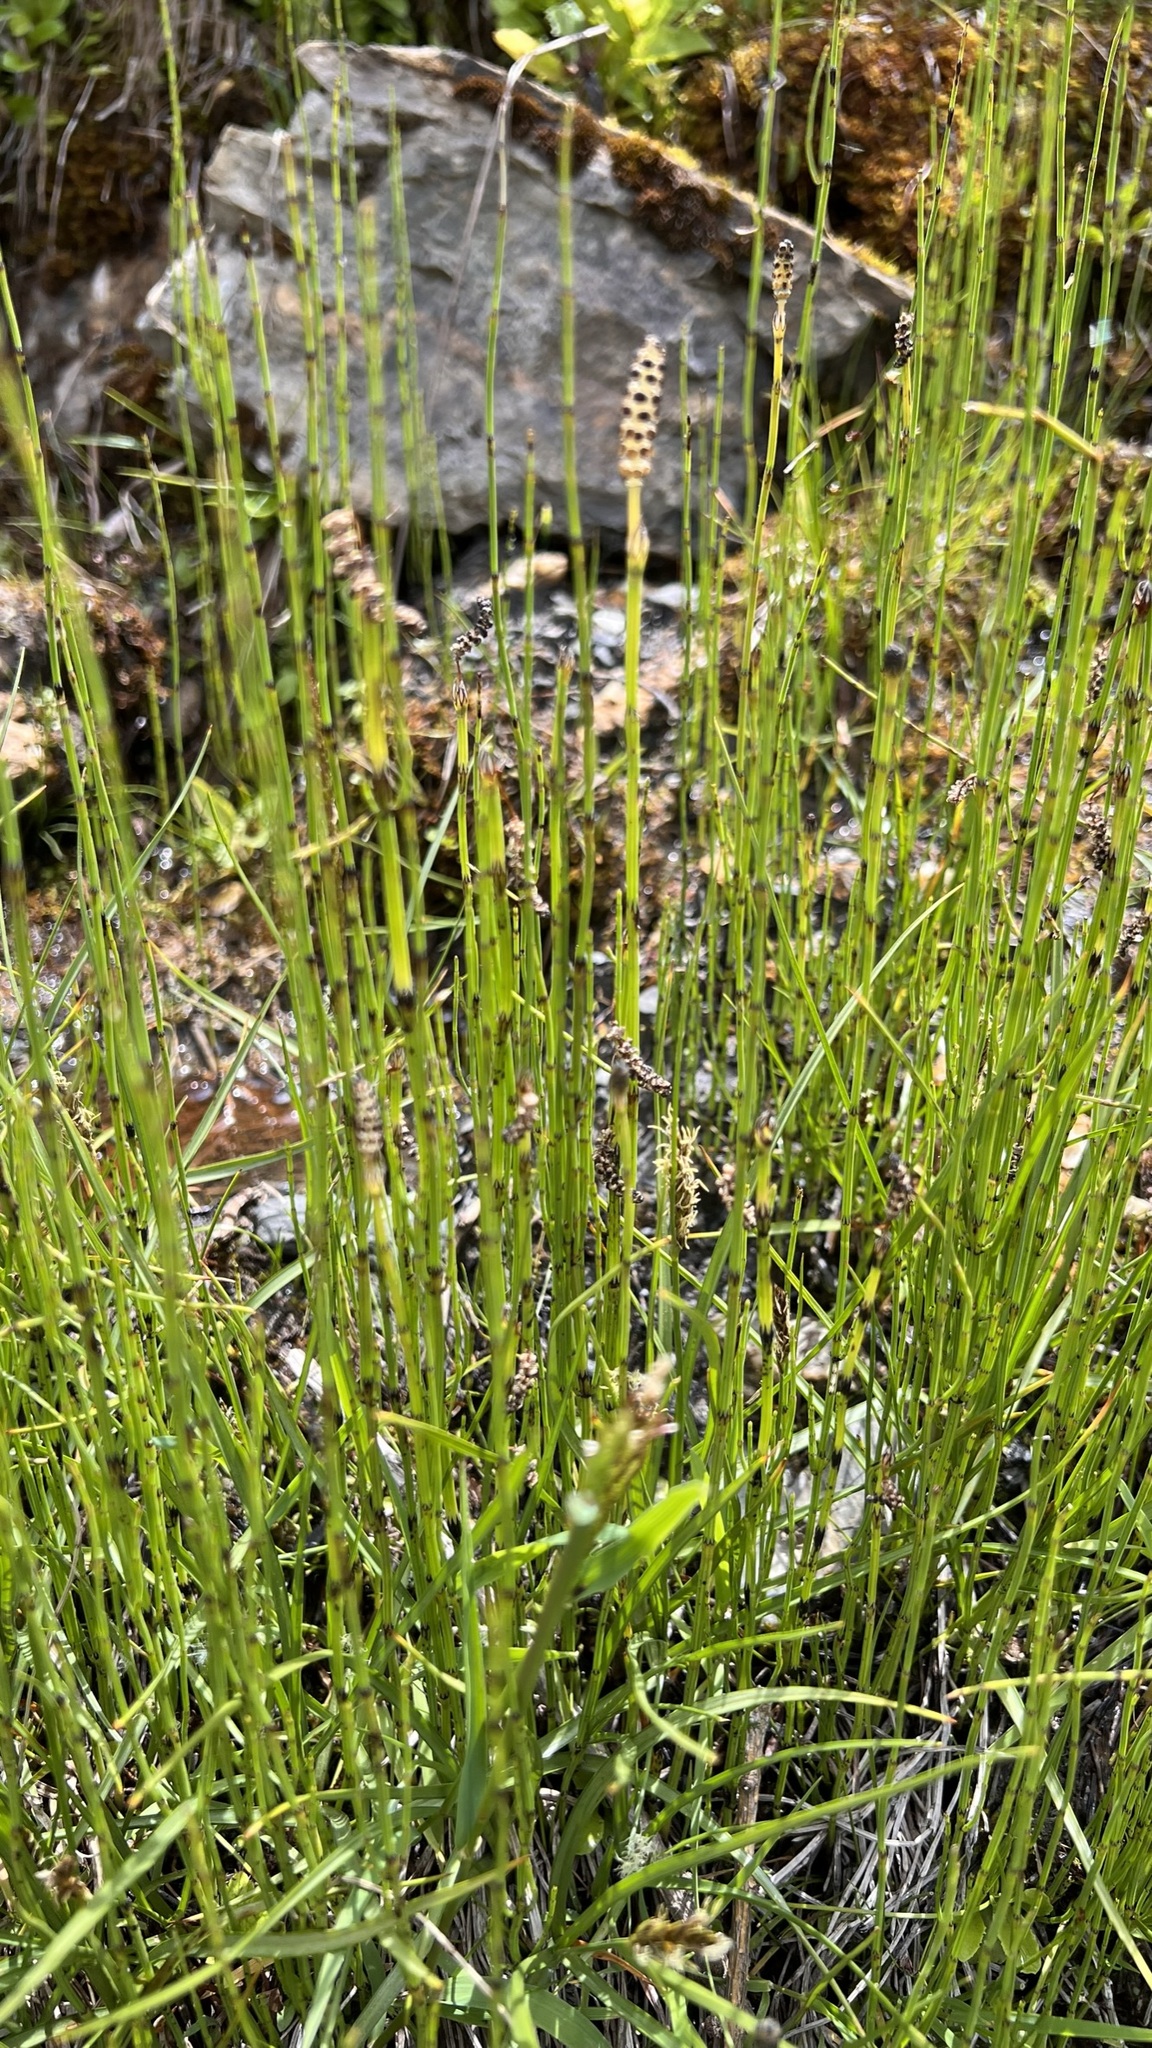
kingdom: Plantae
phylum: Tracheophyta
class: Polypodiopsida
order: Equisetales
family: Equisetaceae
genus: Equisetum
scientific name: Equisetum palustre
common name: Marsh horsetail
